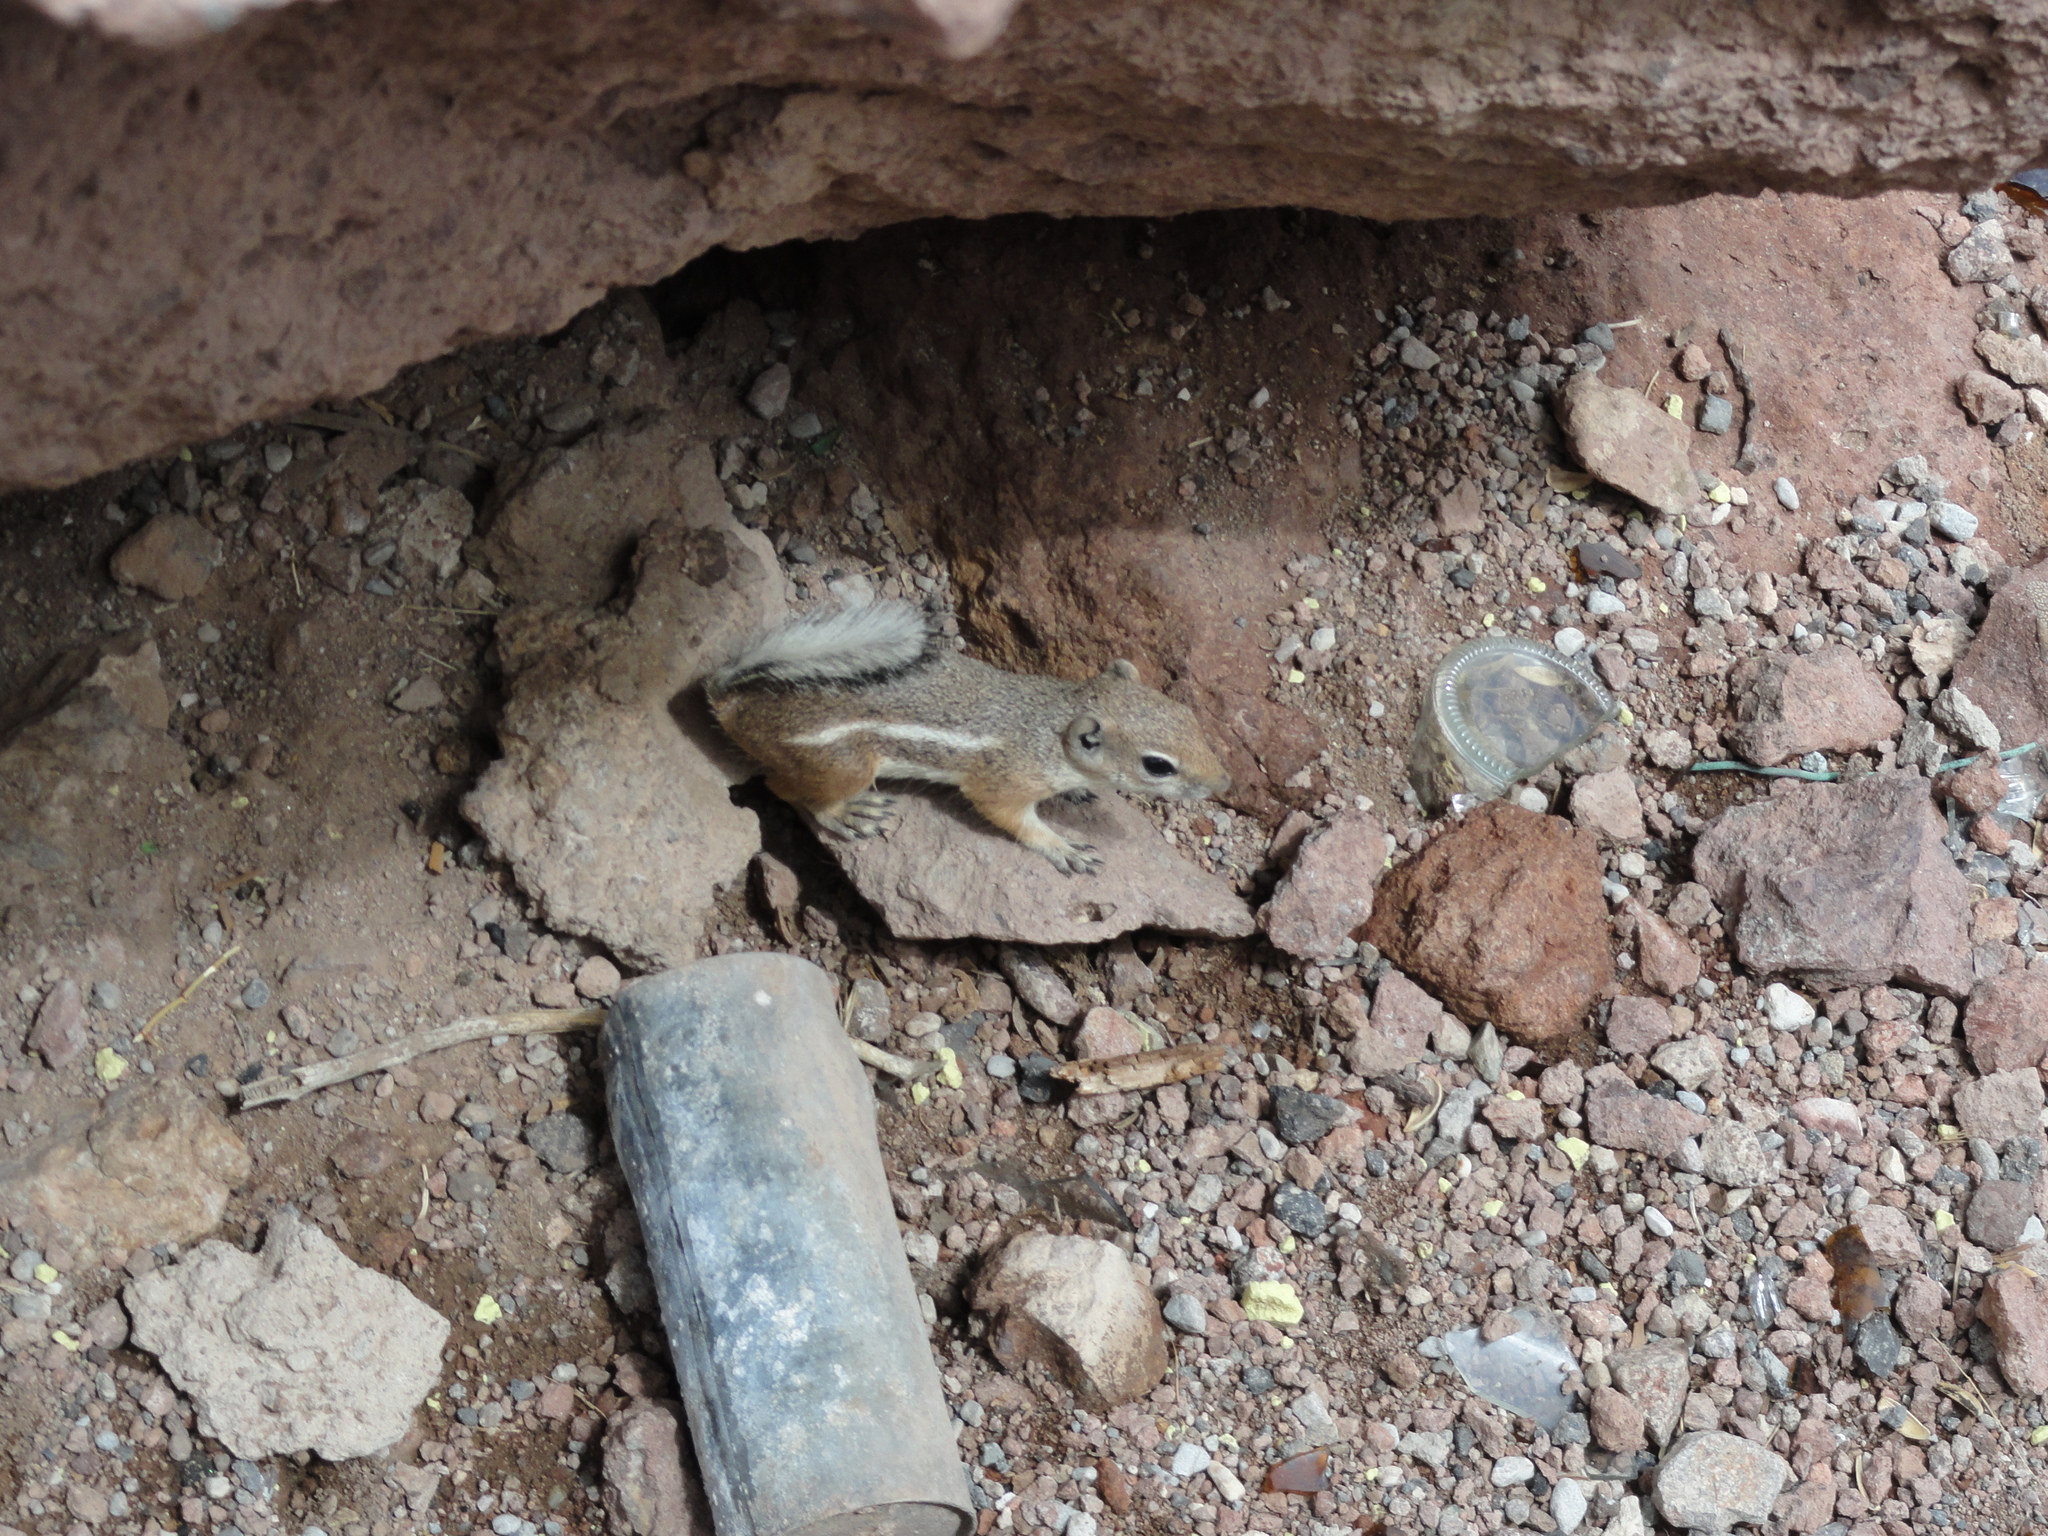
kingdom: Animalia
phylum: Chordata
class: Mammalia
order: Rodentia
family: Sciuridae
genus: Ammospermophilus
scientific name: Ammospermophilus leucurus
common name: White-tailed antelope squirrel
